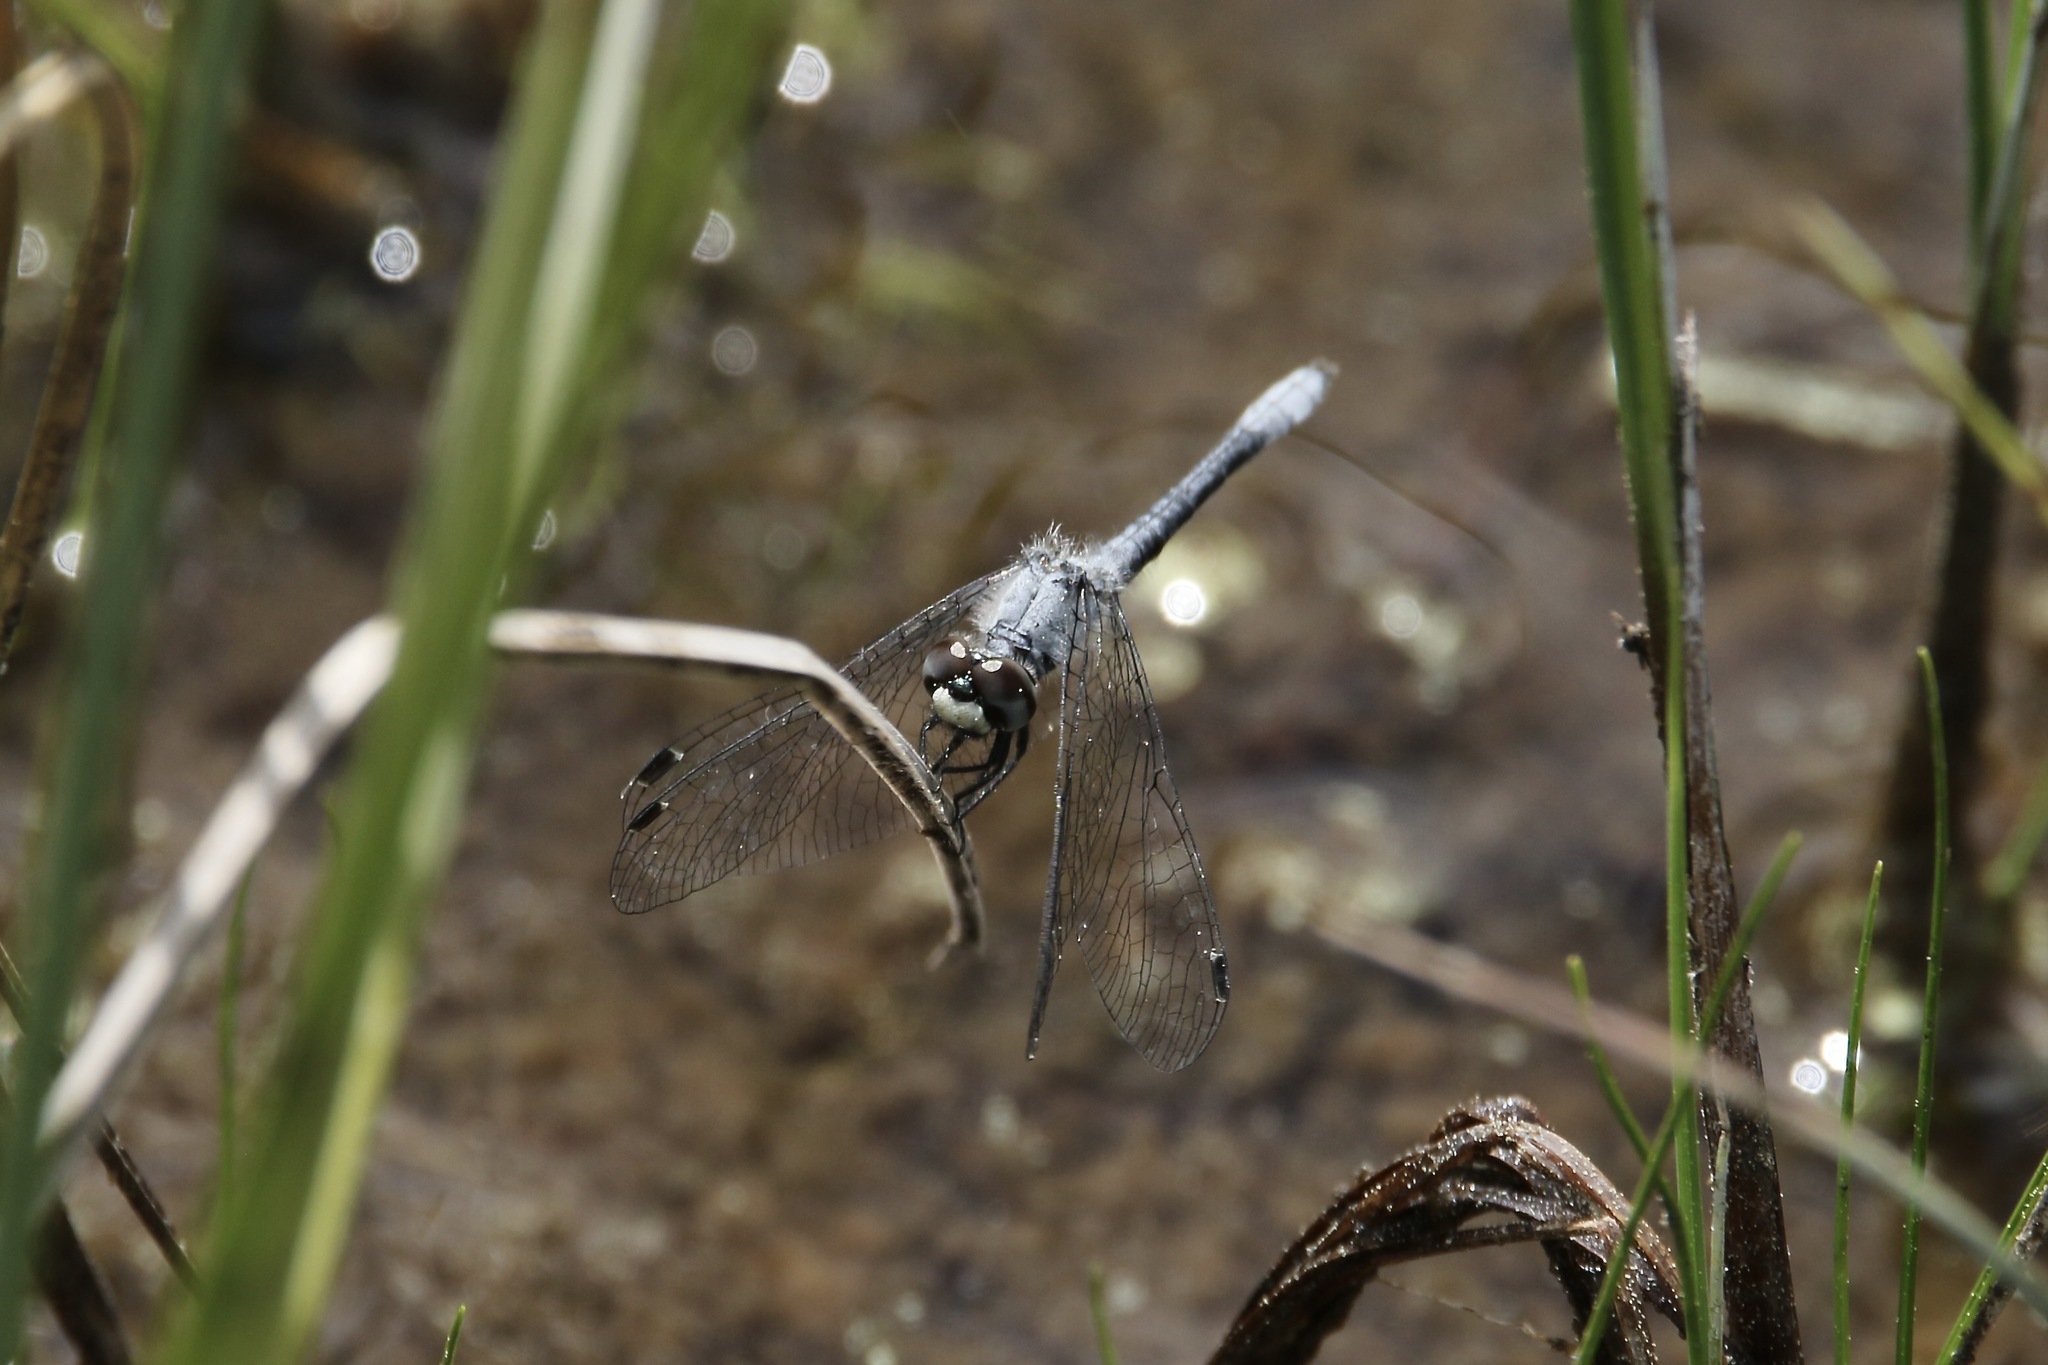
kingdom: Animalia
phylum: Arthropoda
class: Insecta
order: Odonata
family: Libellulidae
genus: Nannothemis
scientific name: Nannothemis bella
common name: Elfin skimmer
